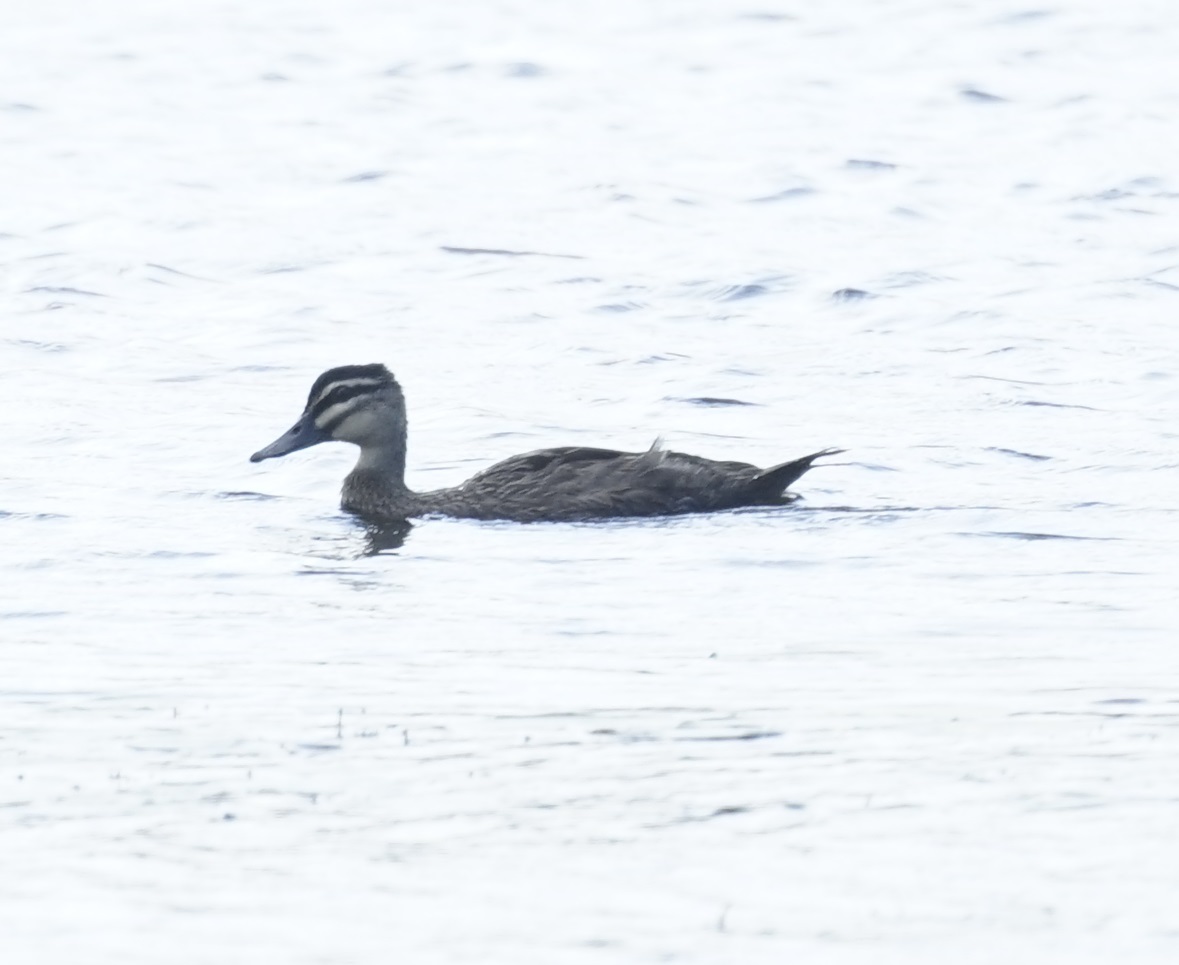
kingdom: Animalia
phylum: Chordata
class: Aves
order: Anseriformes
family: Anatidae
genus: Anas
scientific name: Anas superciliosa
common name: Pacific black duck
